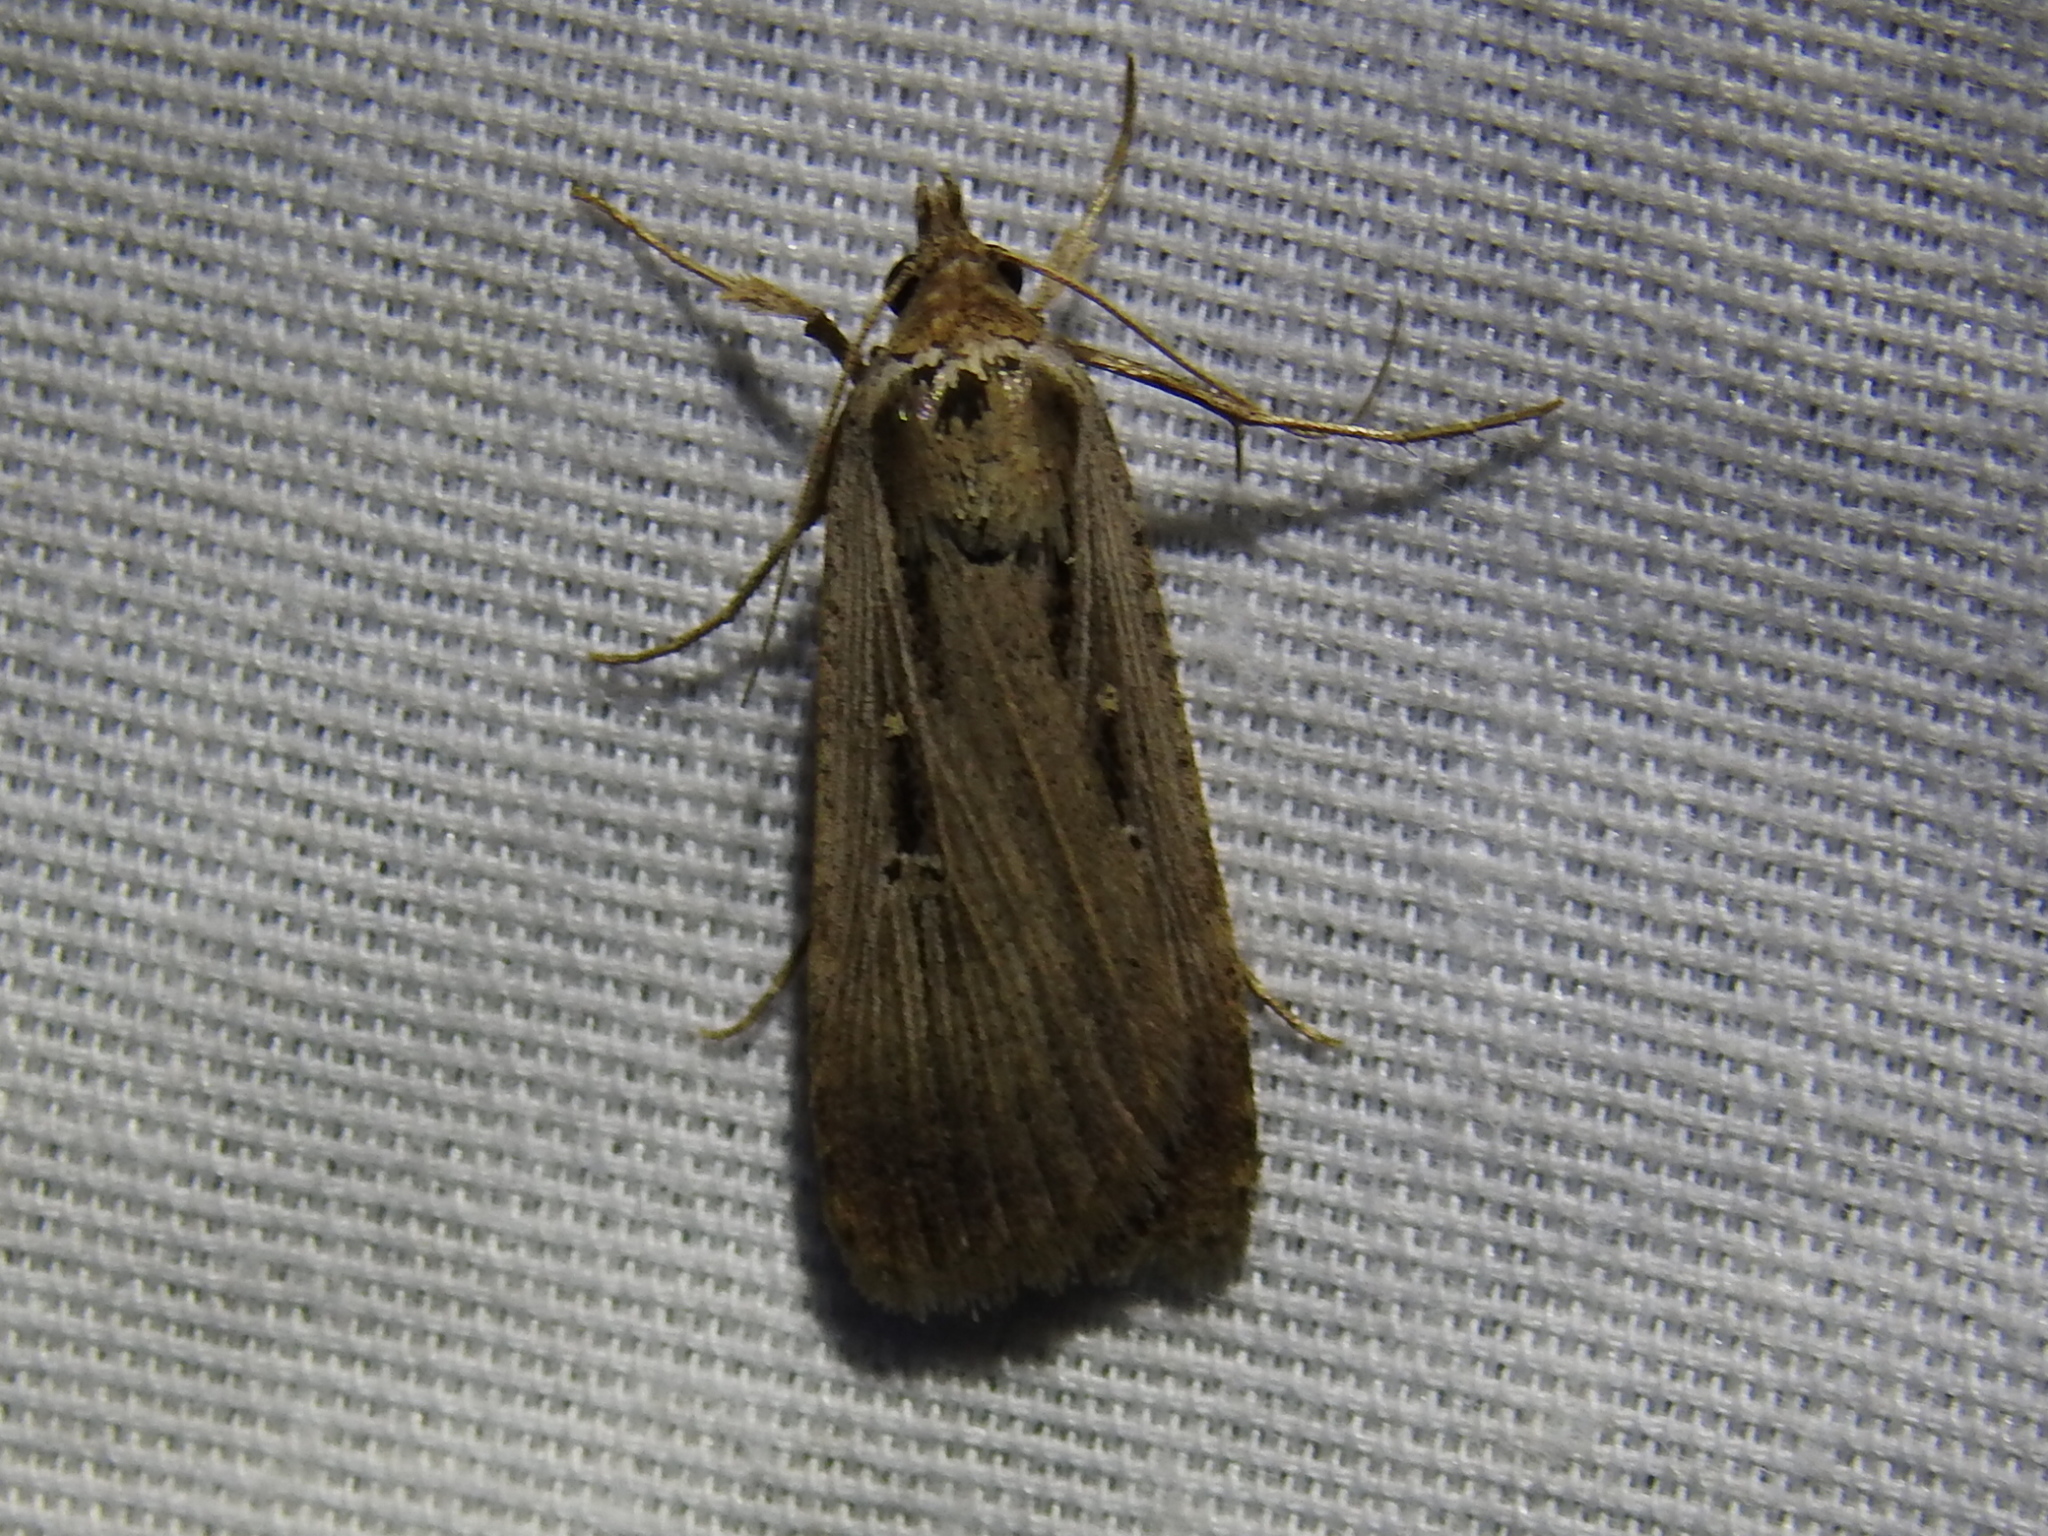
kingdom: Animalia
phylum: Arthropoda
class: Insecta
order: Lepidoptera
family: Noctuidae
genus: Tathorhynchus
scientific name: Tathorhynchus exsiccata
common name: Levant blackneck moth
